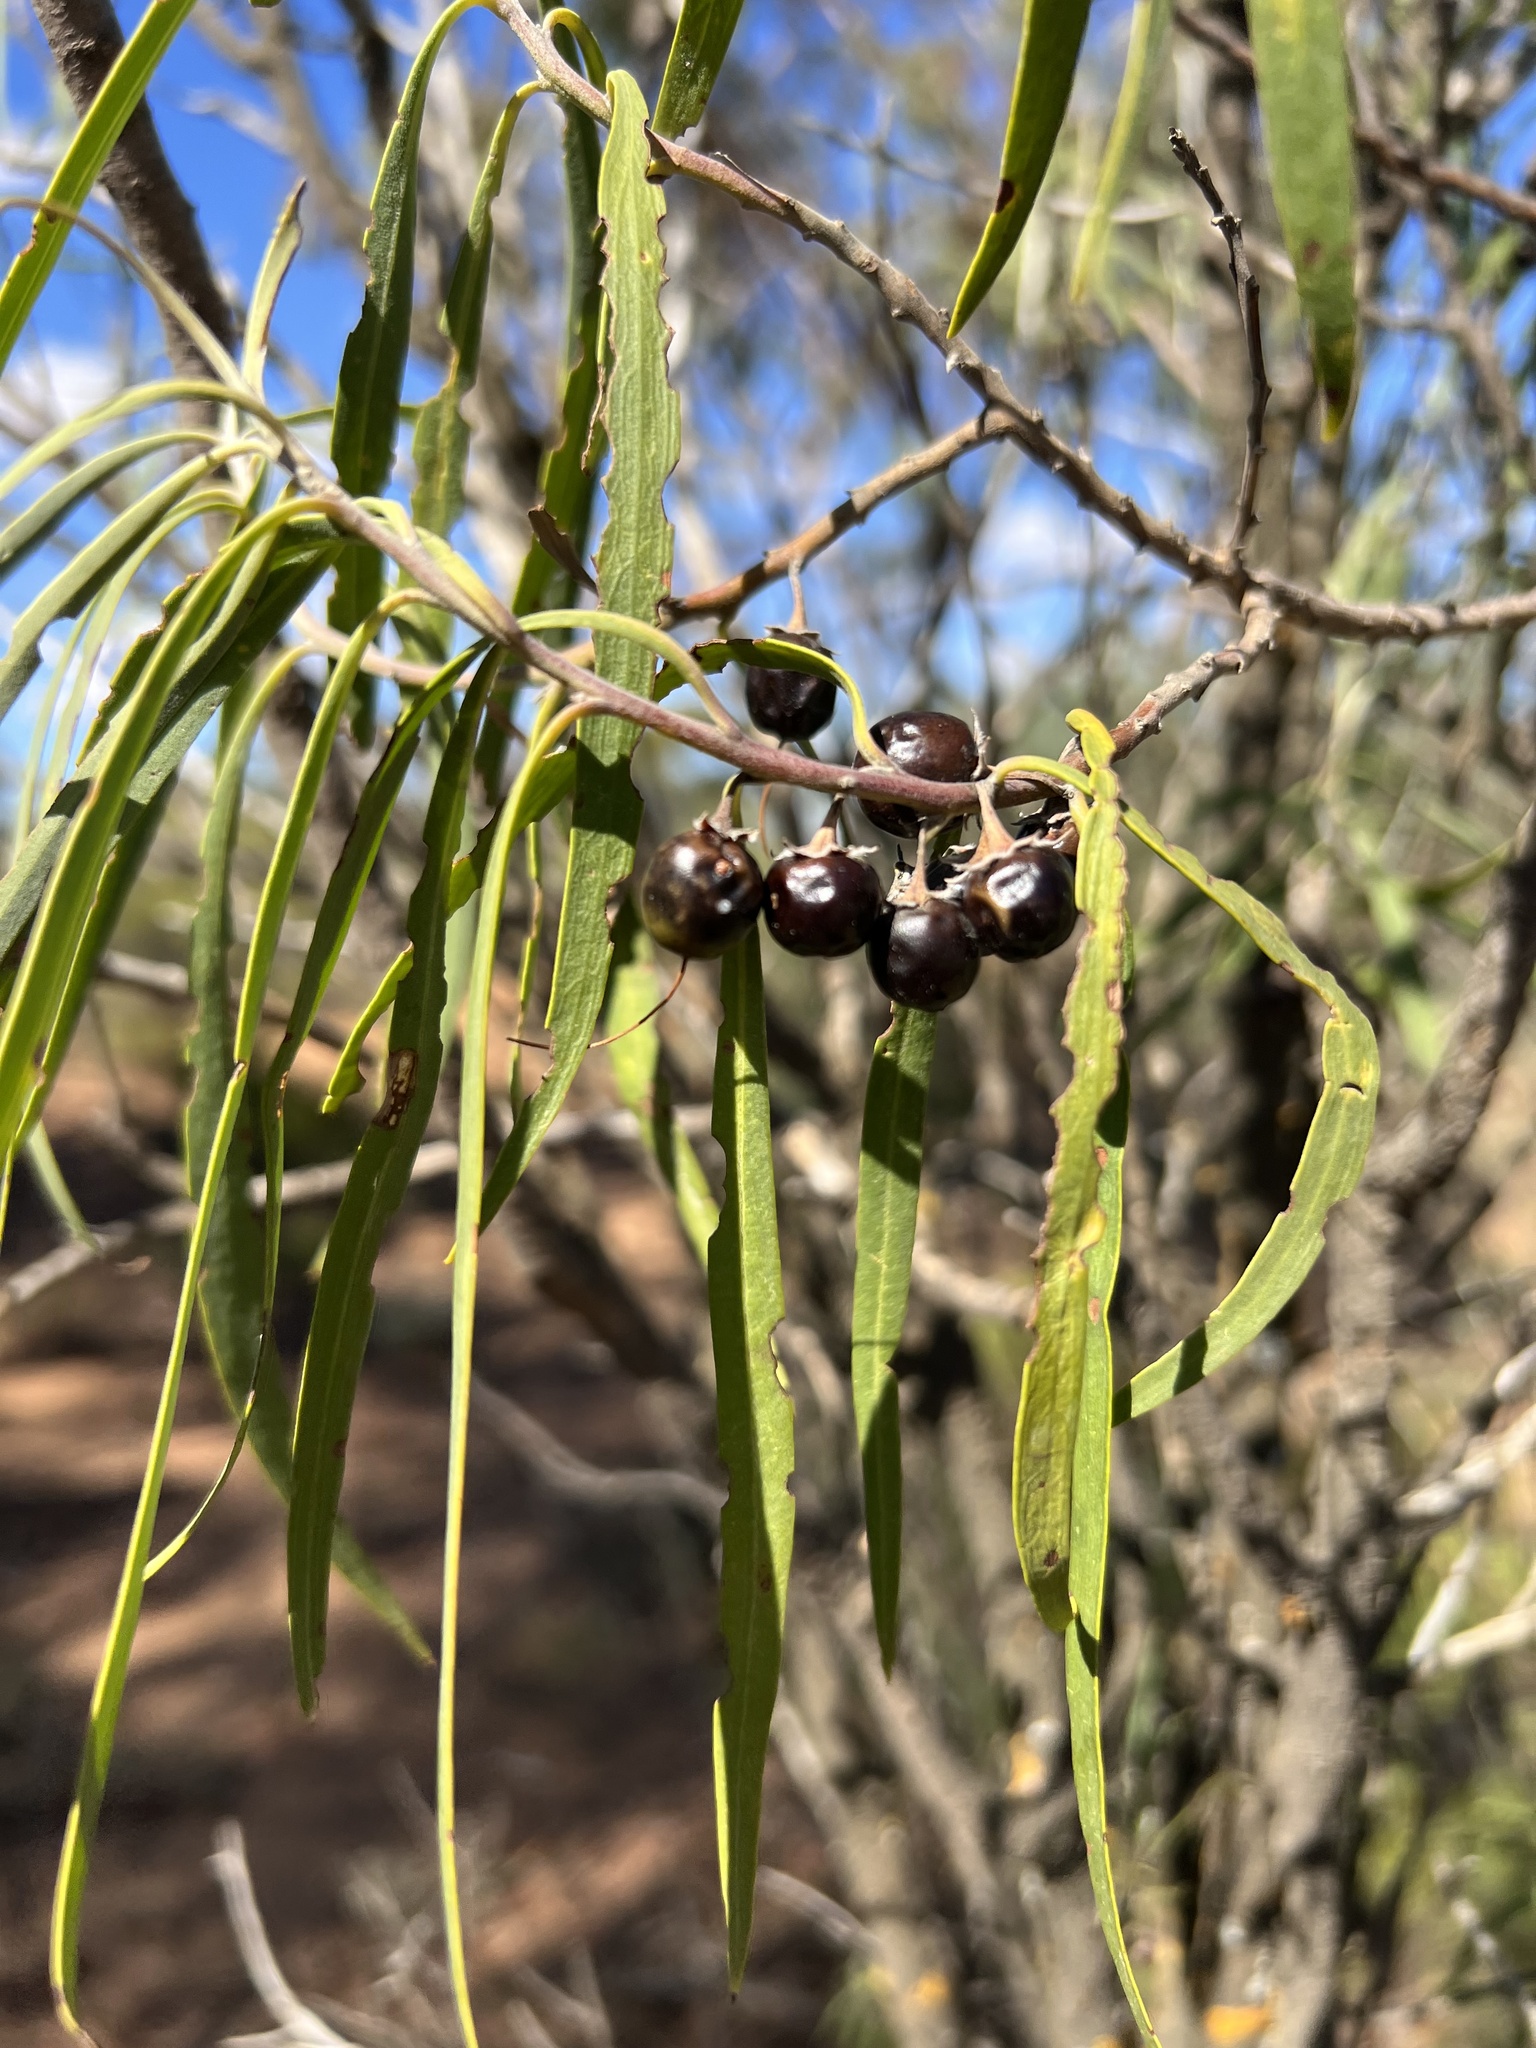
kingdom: Plantae
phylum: Tracheophyta
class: Magnoliopsida
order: Lamiales
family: Scrophulariaceae
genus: Eremophila
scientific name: Eremophila longifolia
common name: Longleaf emubush
